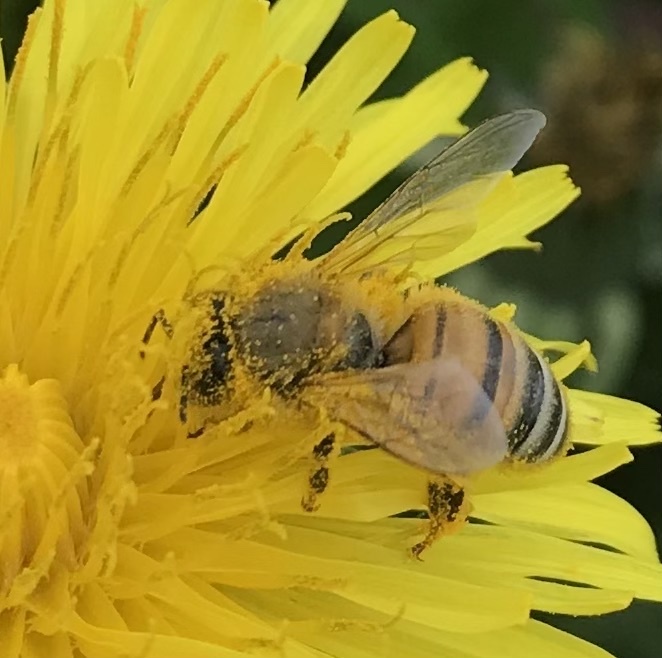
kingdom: Animalia
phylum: Arthropoda
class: Insecta
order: Hymenoptera
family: Apidae
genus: Apis
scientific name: Apis mellifera
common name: Honey bee
